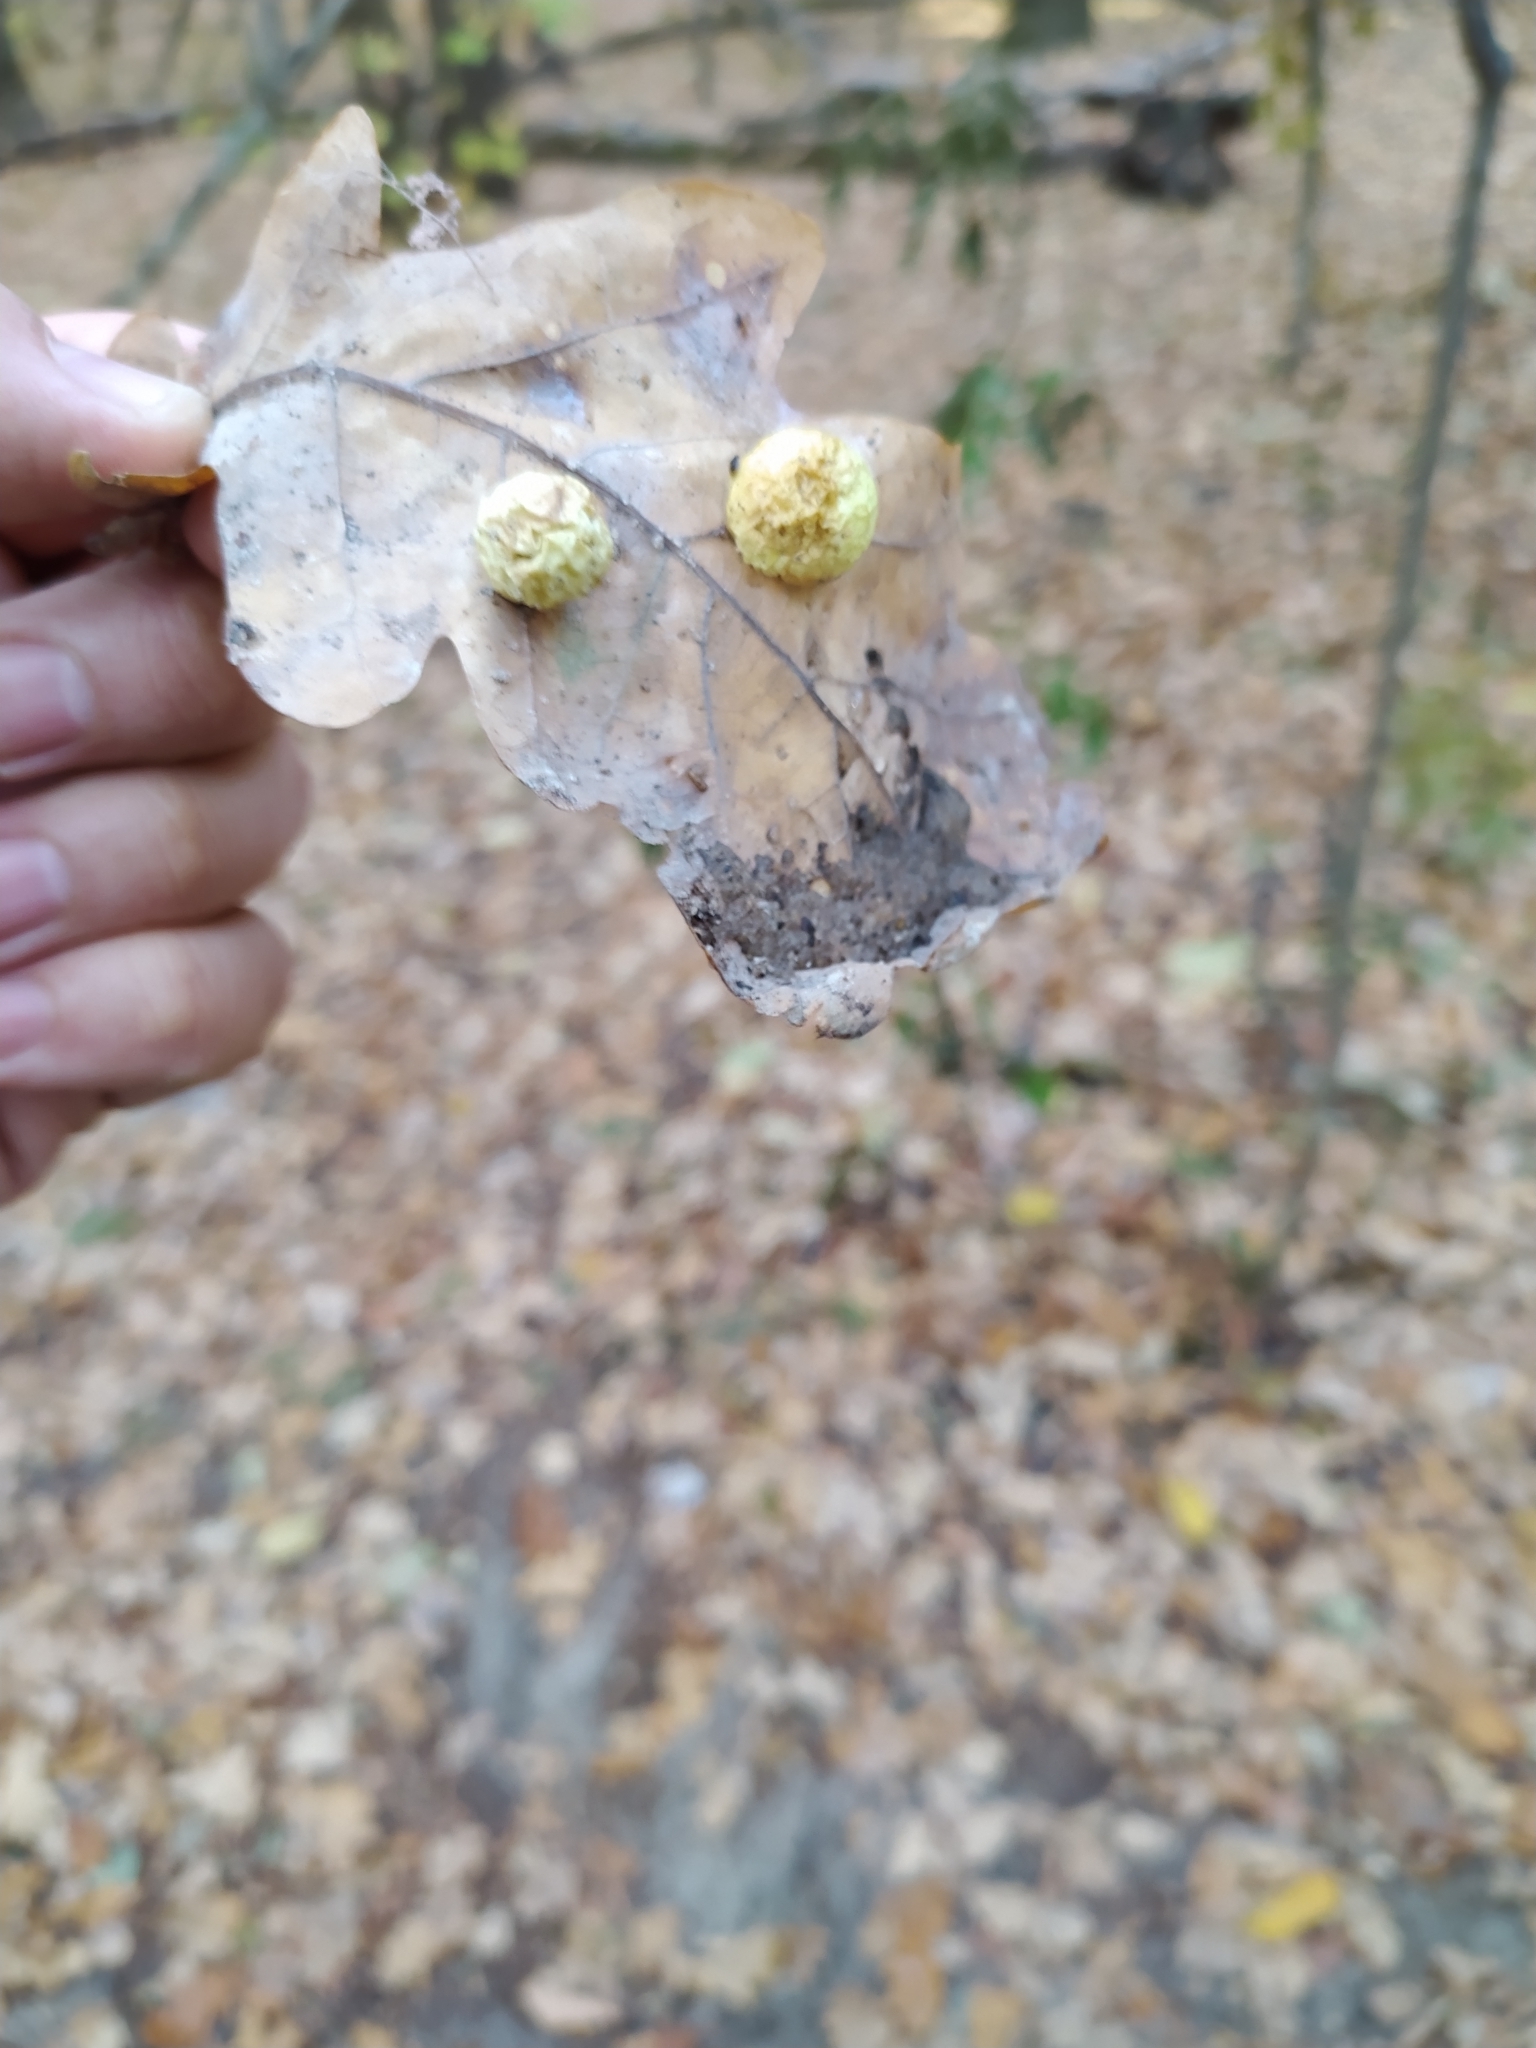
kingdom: Animalia
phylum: Arthropoda
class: Insecta
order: Hymenoptera
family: Cynipidae
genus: Cynips
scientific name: Cynips quercusfolii
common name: Cherry gall
